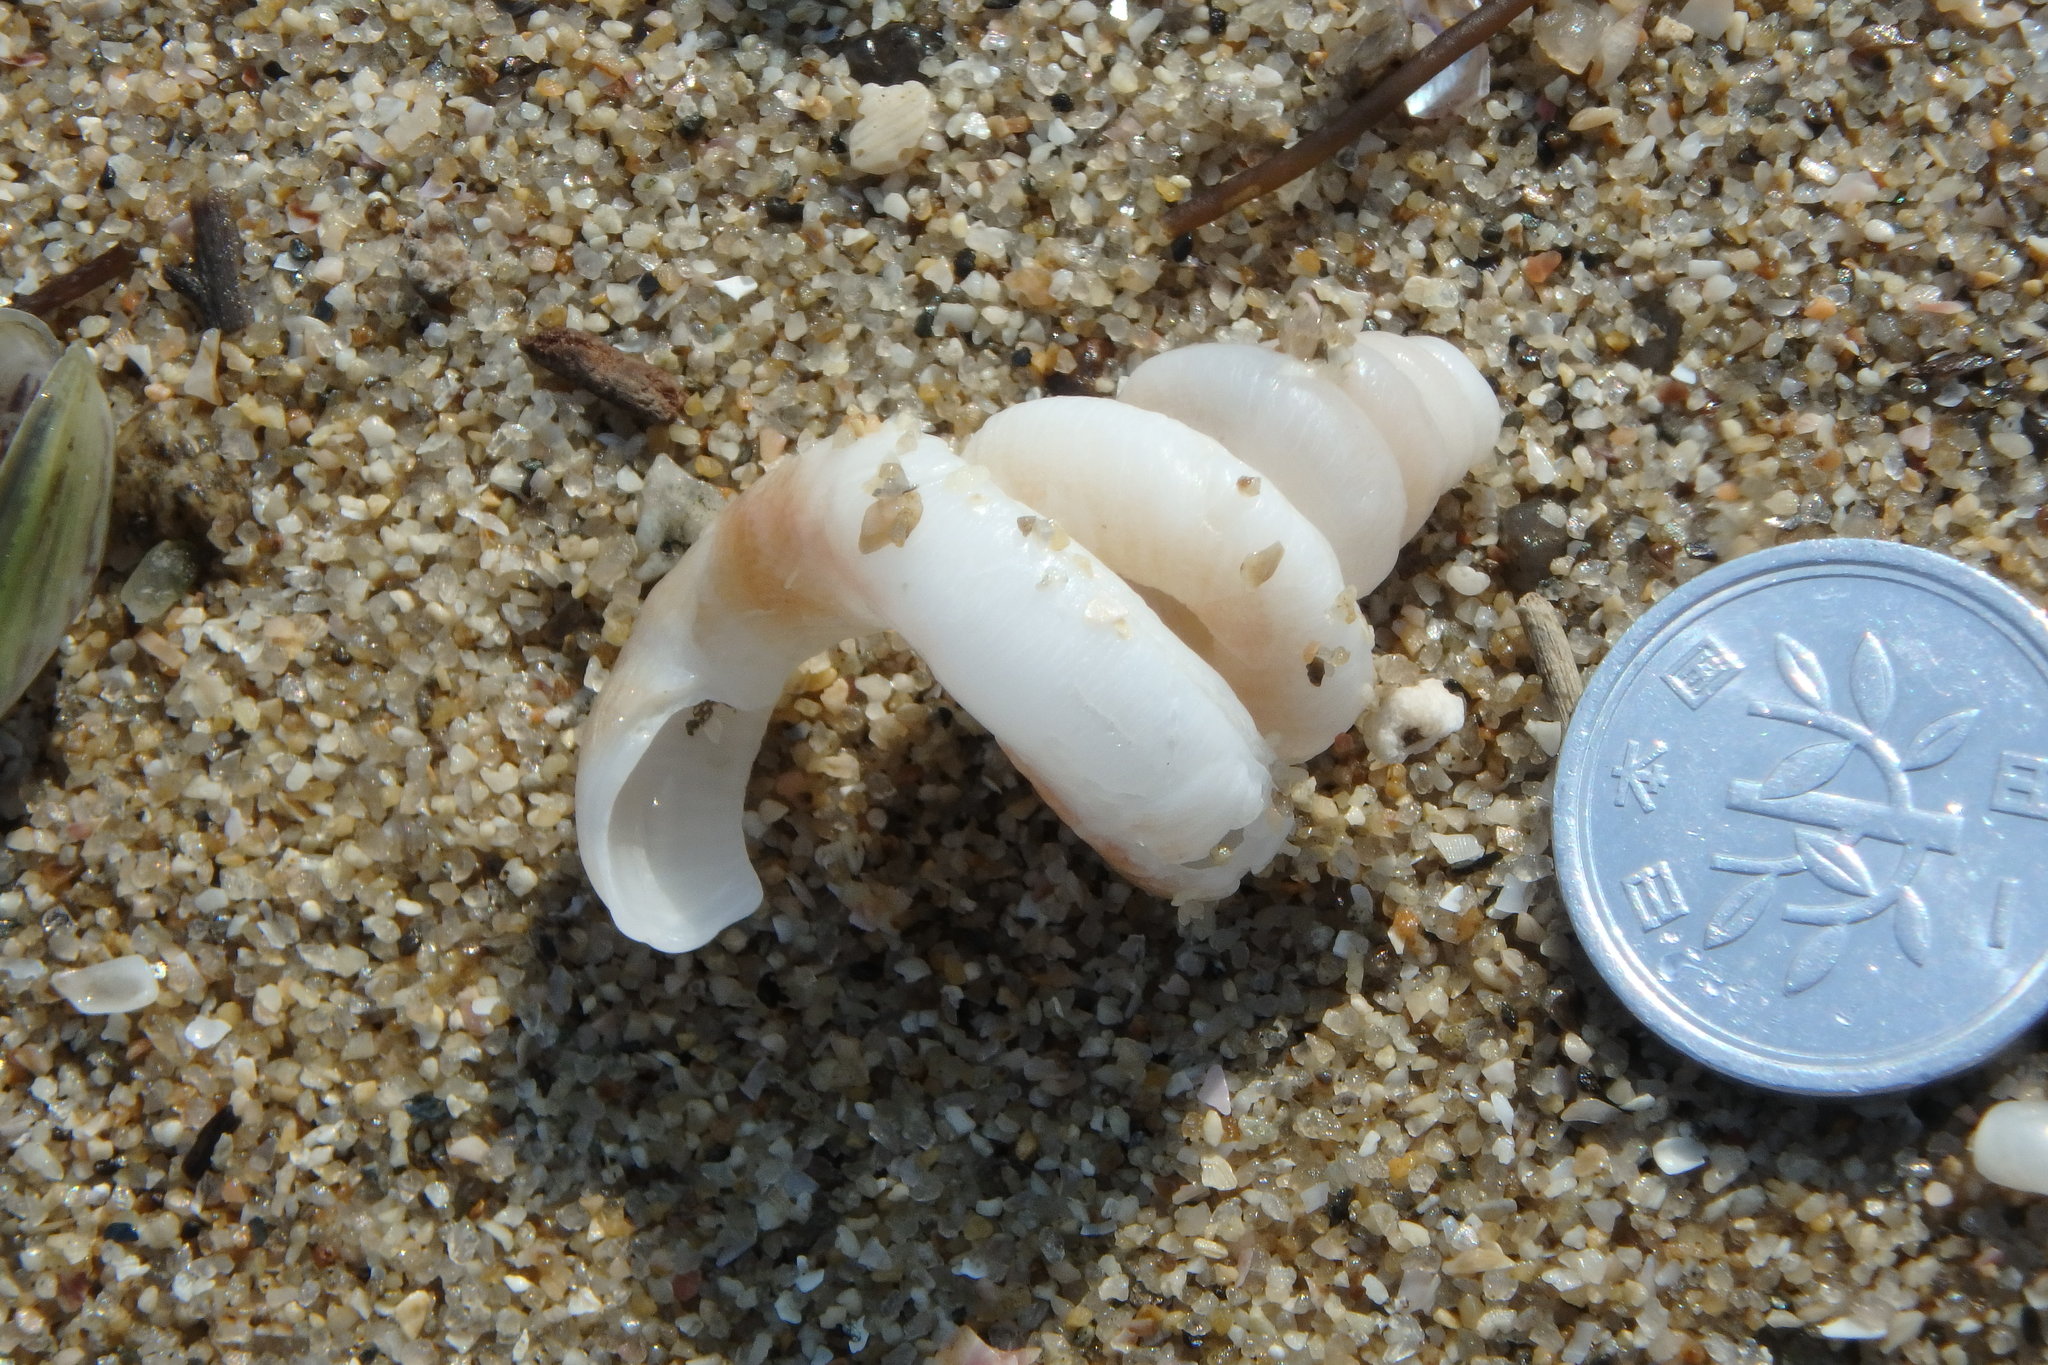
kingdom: Animalia
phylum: Mollusca
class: Gastropoda
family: Siliquariidae
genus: Tenagodus
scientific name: Tenagodus cumingii
